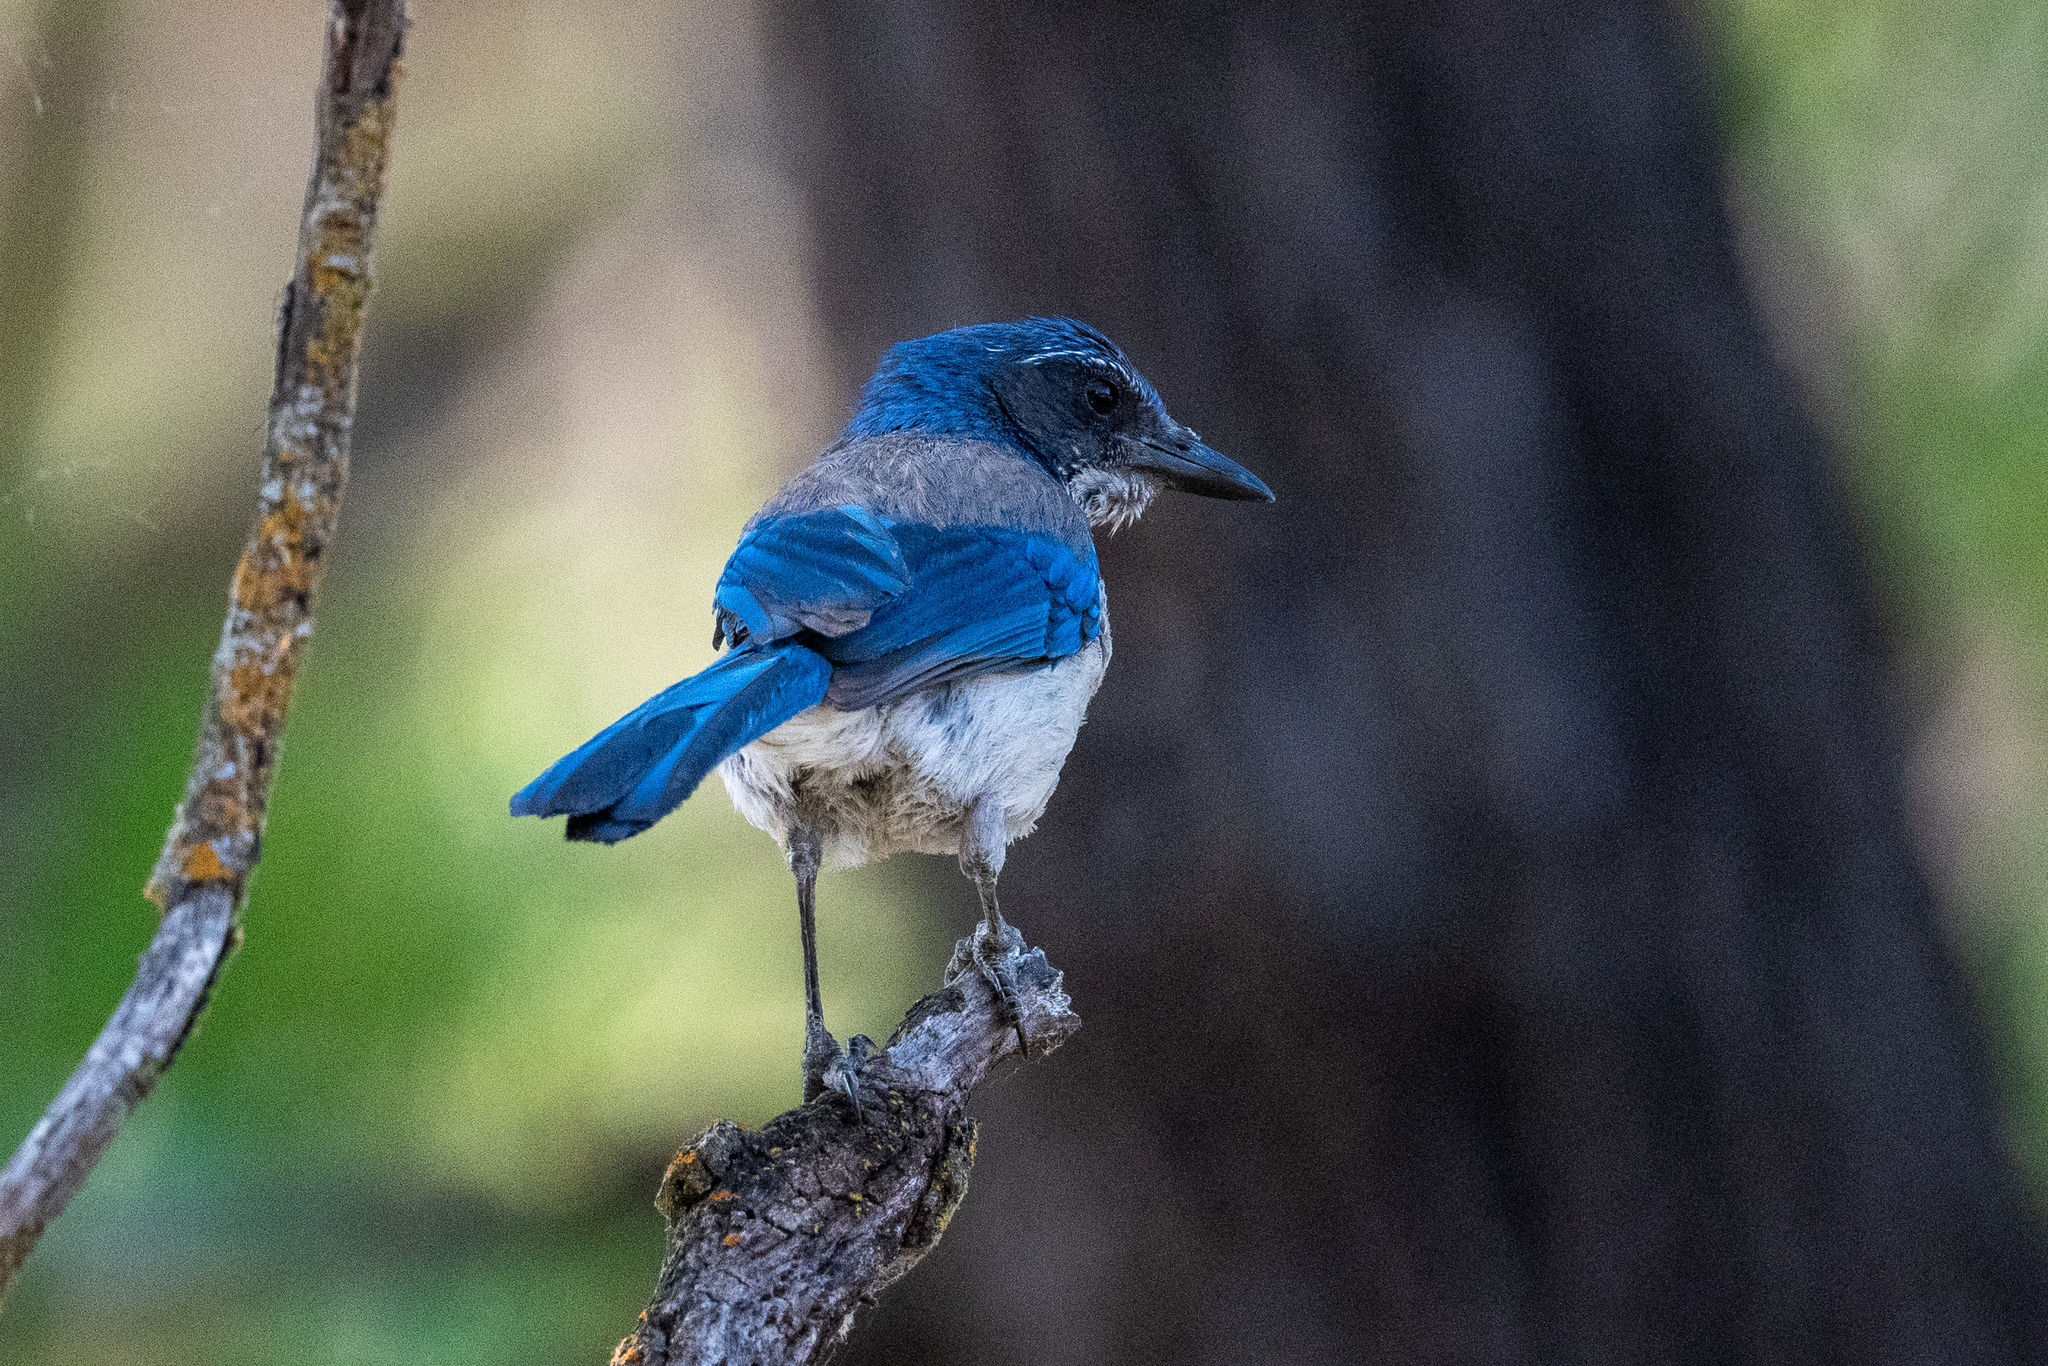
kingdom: Animalia
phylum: Chordata
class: Aves
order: Passeriformes
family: Corvidae
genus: Aphelocoma
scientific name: Aphelocoma californica
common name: California scrub-jay
